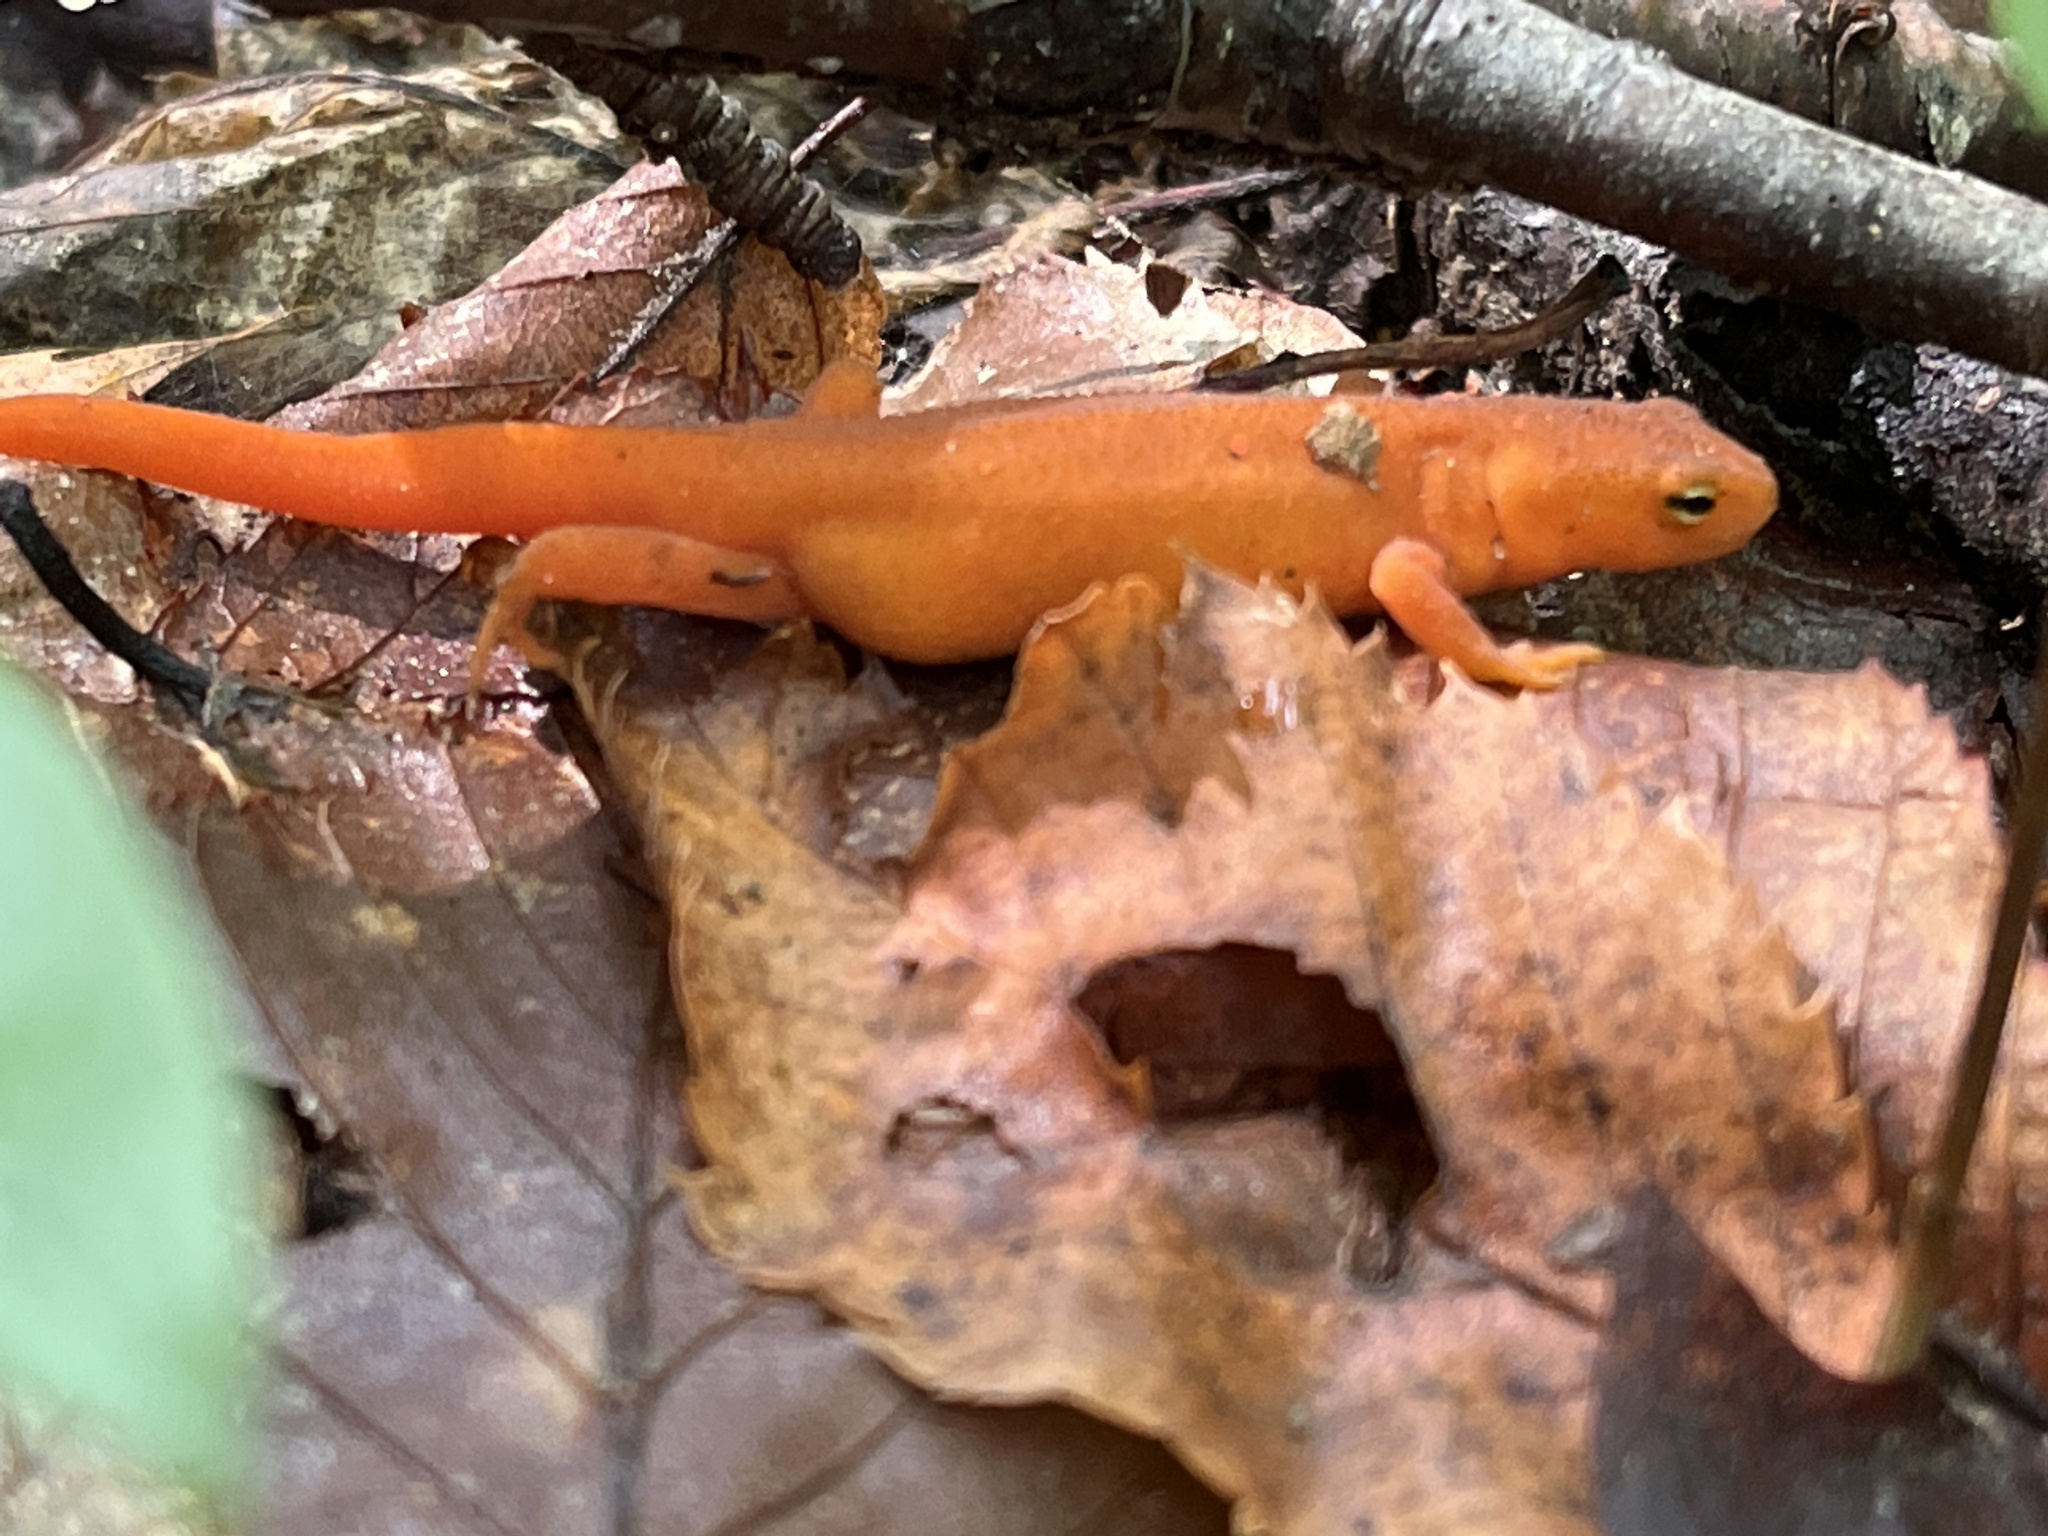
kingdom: Animalia
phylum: Chordata
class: Amphibia
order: Caudata
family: Salamandridae
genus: Notophthalmus
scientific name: Notophthalmus viridescens
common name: Eastern newt
